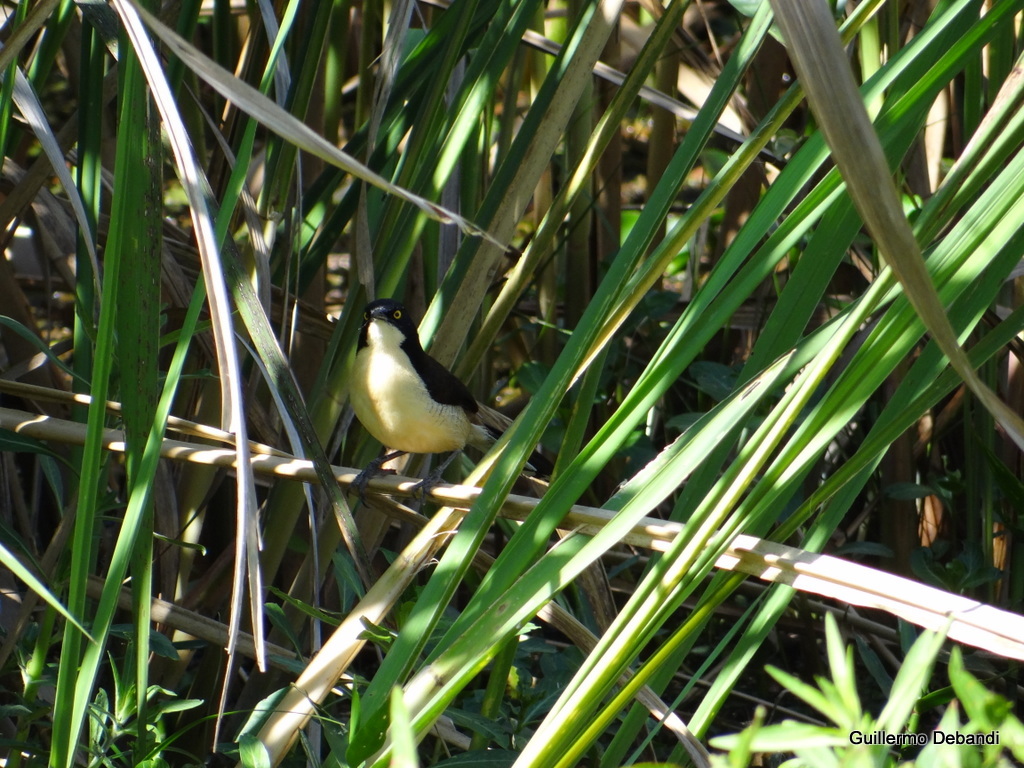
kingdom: Animalia
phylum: Chordata
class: Aves
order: Passeriformes
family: Donacobiidae
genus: Donacobius
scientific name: Donacobius atricapilla
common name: Black-capped donacobius
